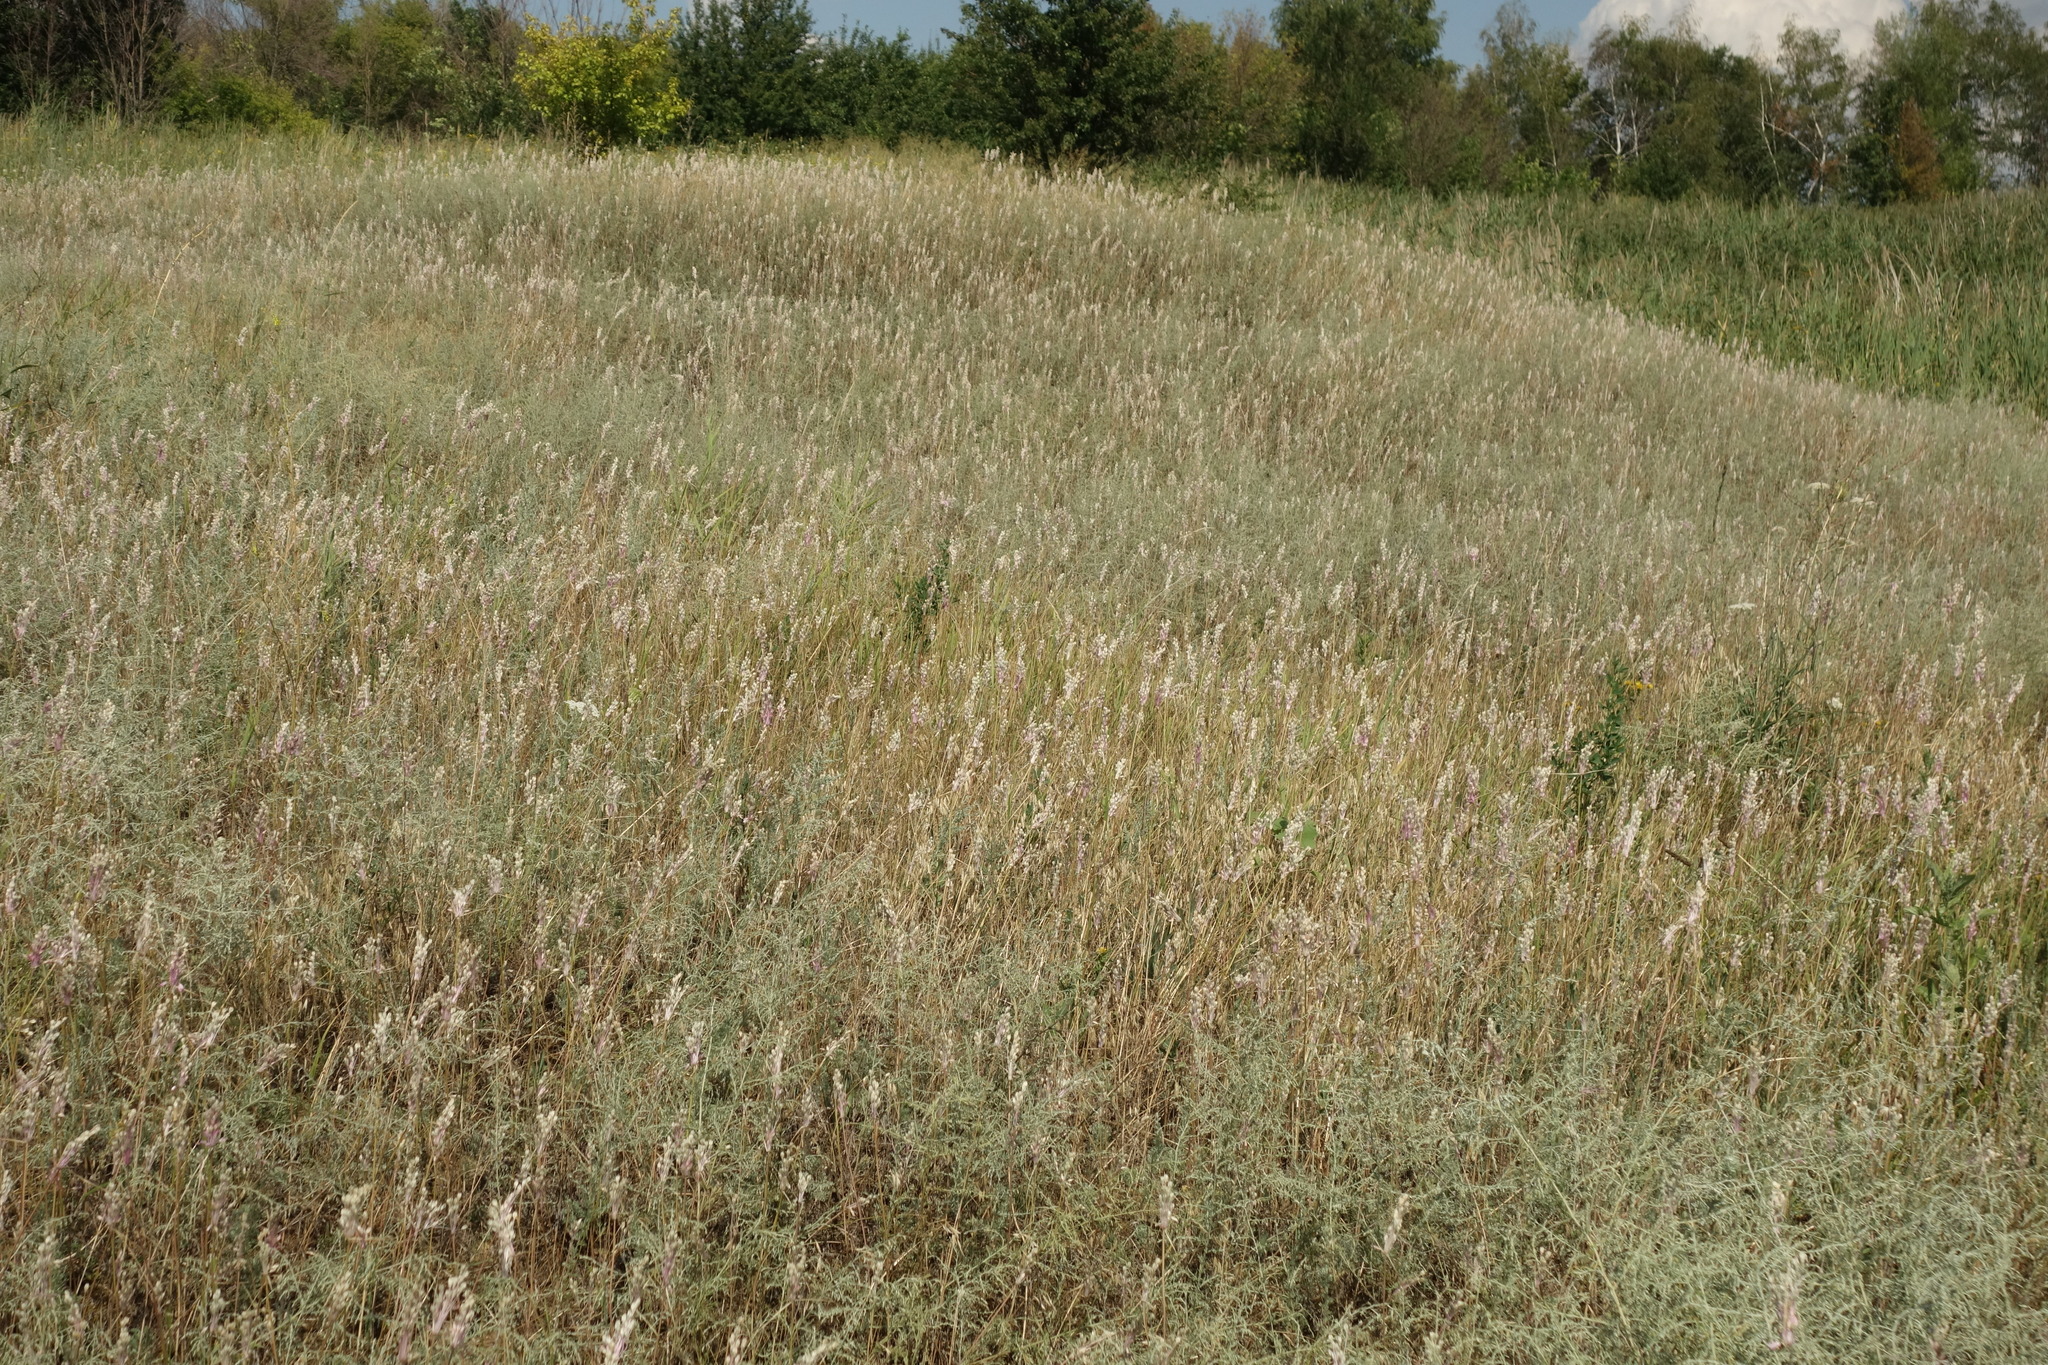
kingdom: Plantae
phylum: Tracheophyta
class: Liliopsida
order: Asparagales
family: Amaryllidaceae
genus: Allium
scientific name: Allium praescissum
